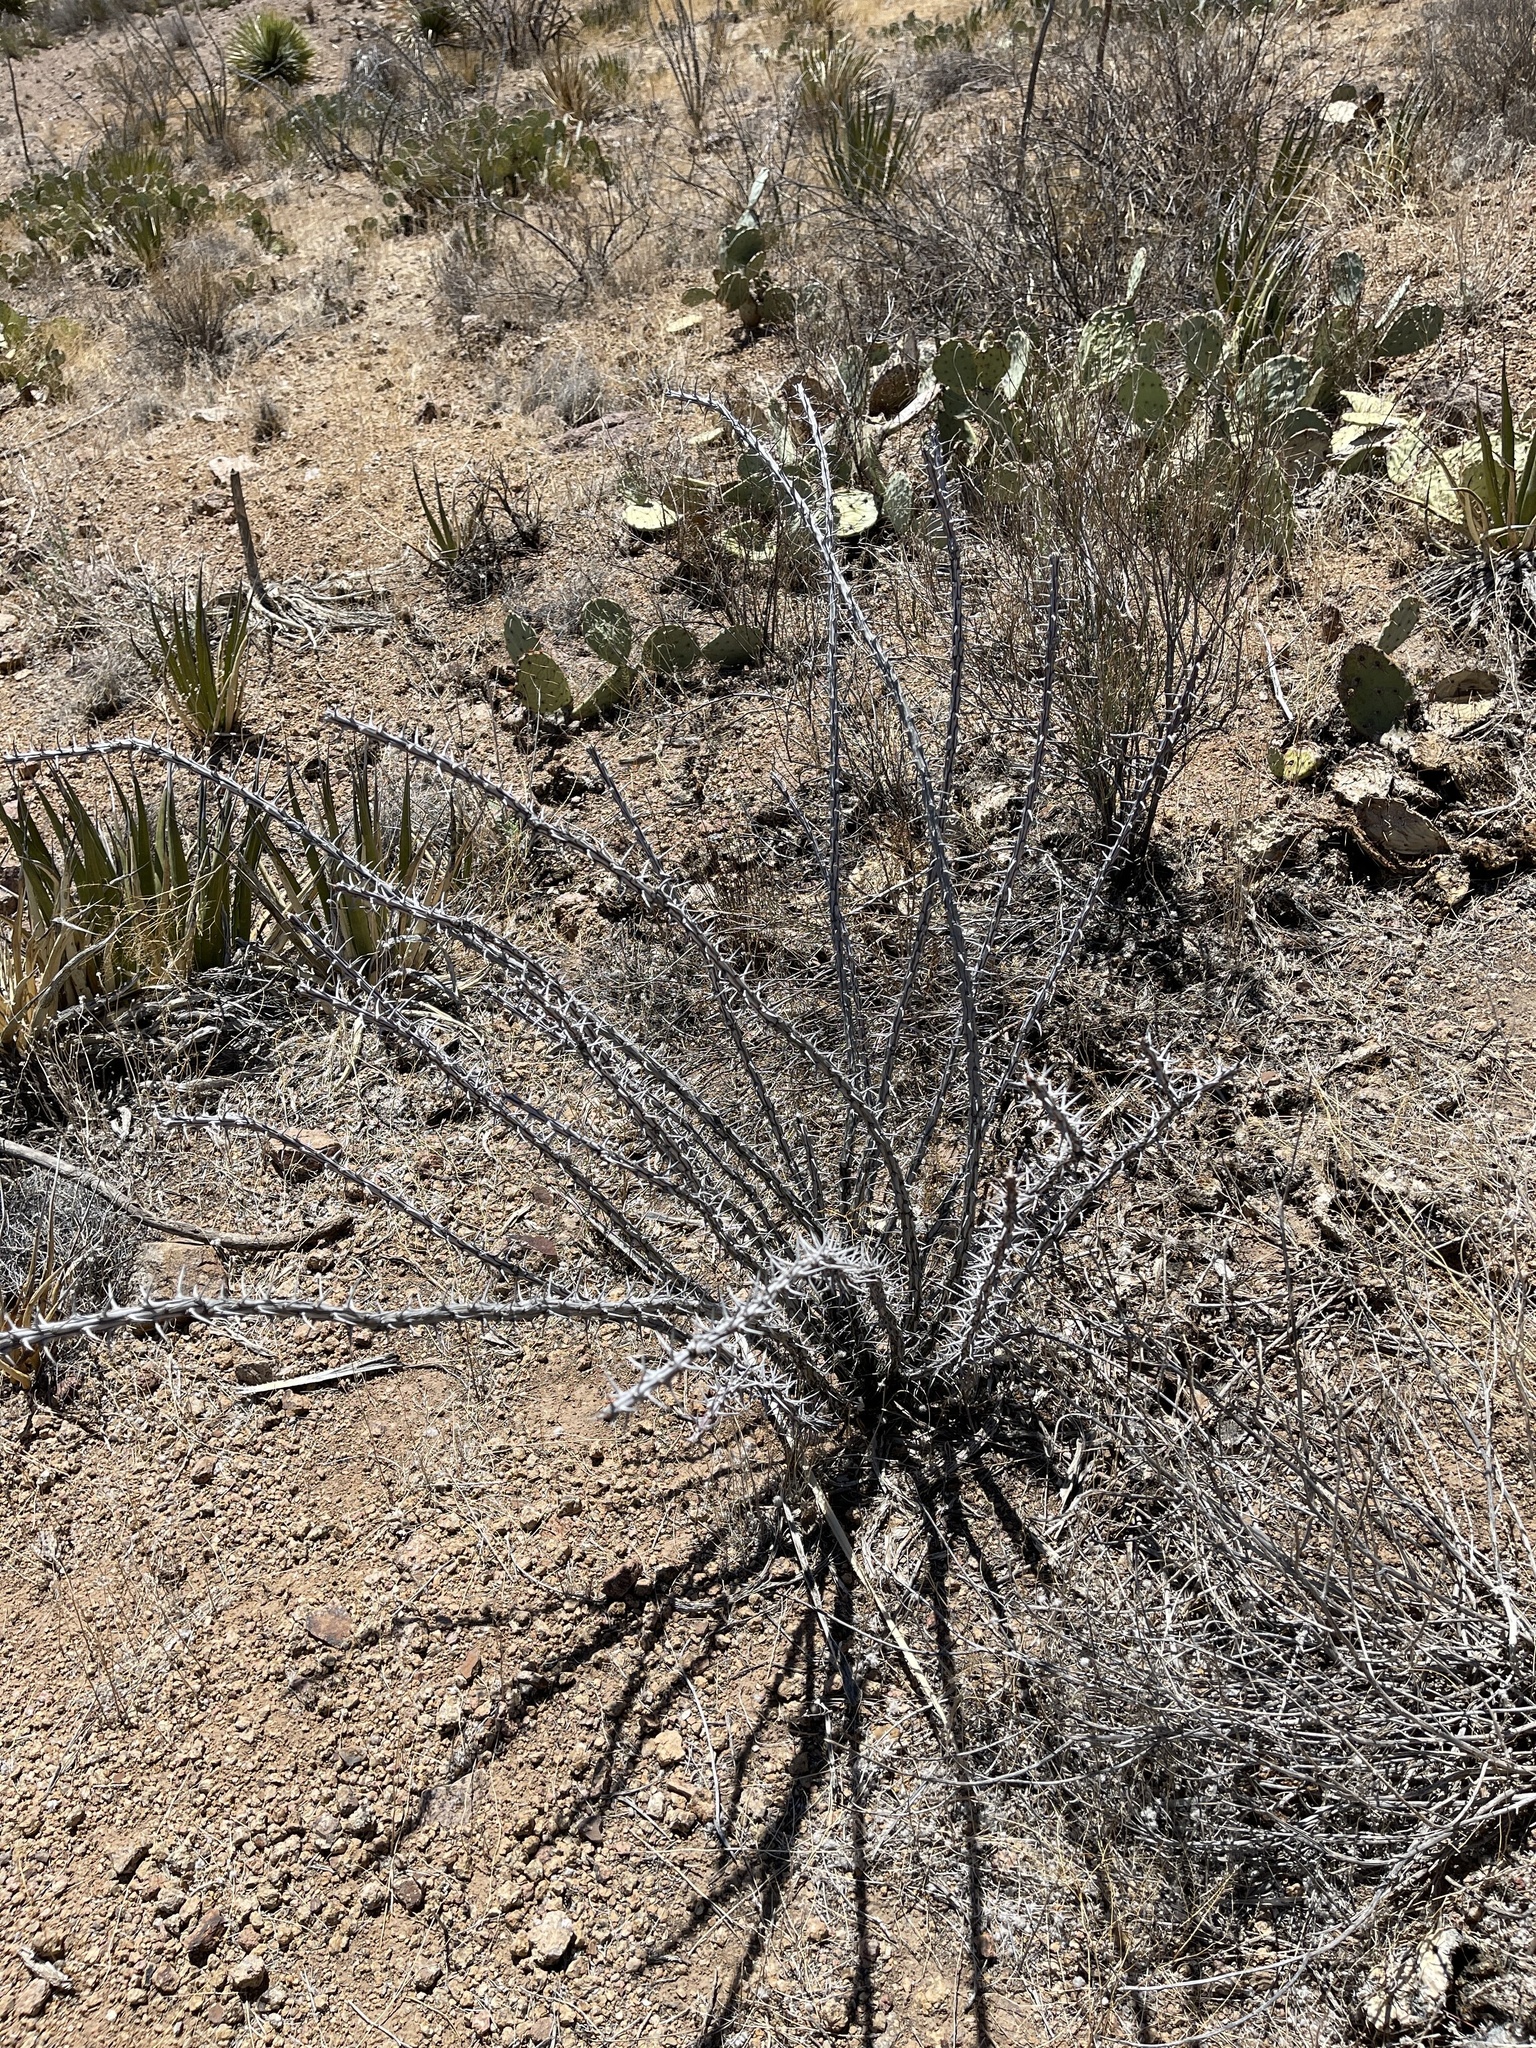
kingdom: Plantae
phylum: Tracheophyta
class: Magnoliopsida
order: Ericales
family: Fouquieriaceae
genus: Fouquieria
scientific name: Fouquieria splendens
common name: Vine-cactus
